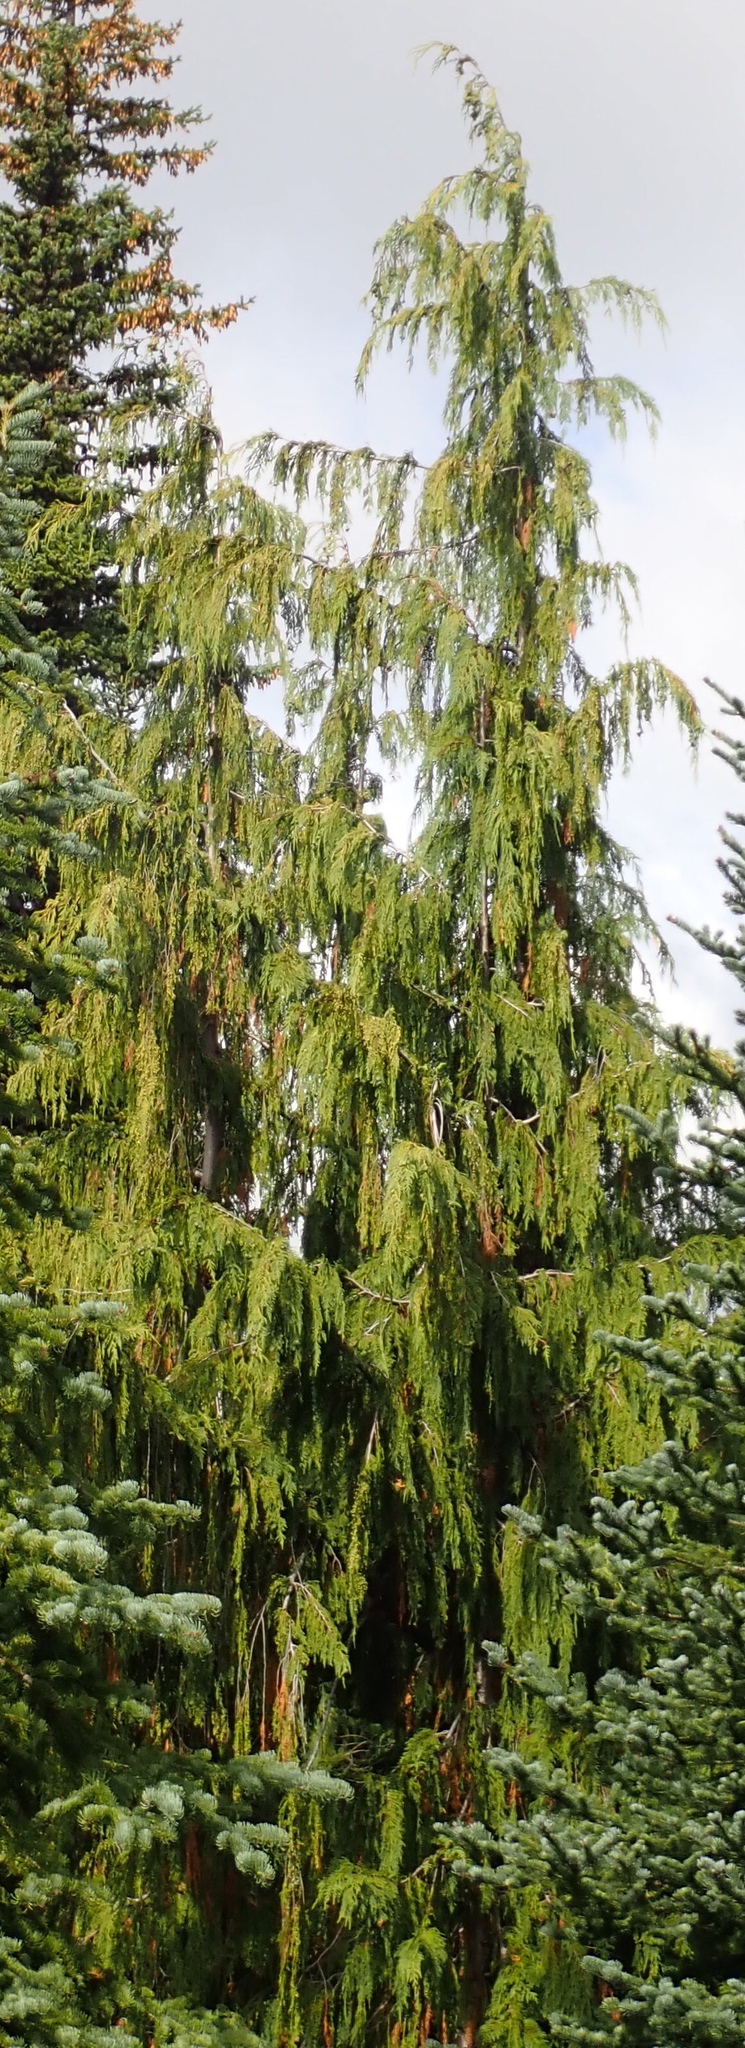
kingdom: Plantae
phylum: Tracheophyta
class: Pinopsida
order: Pinales
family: Cupressaceae
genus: Xanthocyparis
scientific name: Xanthocyparis nootkatensis
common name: Nootka cypress
